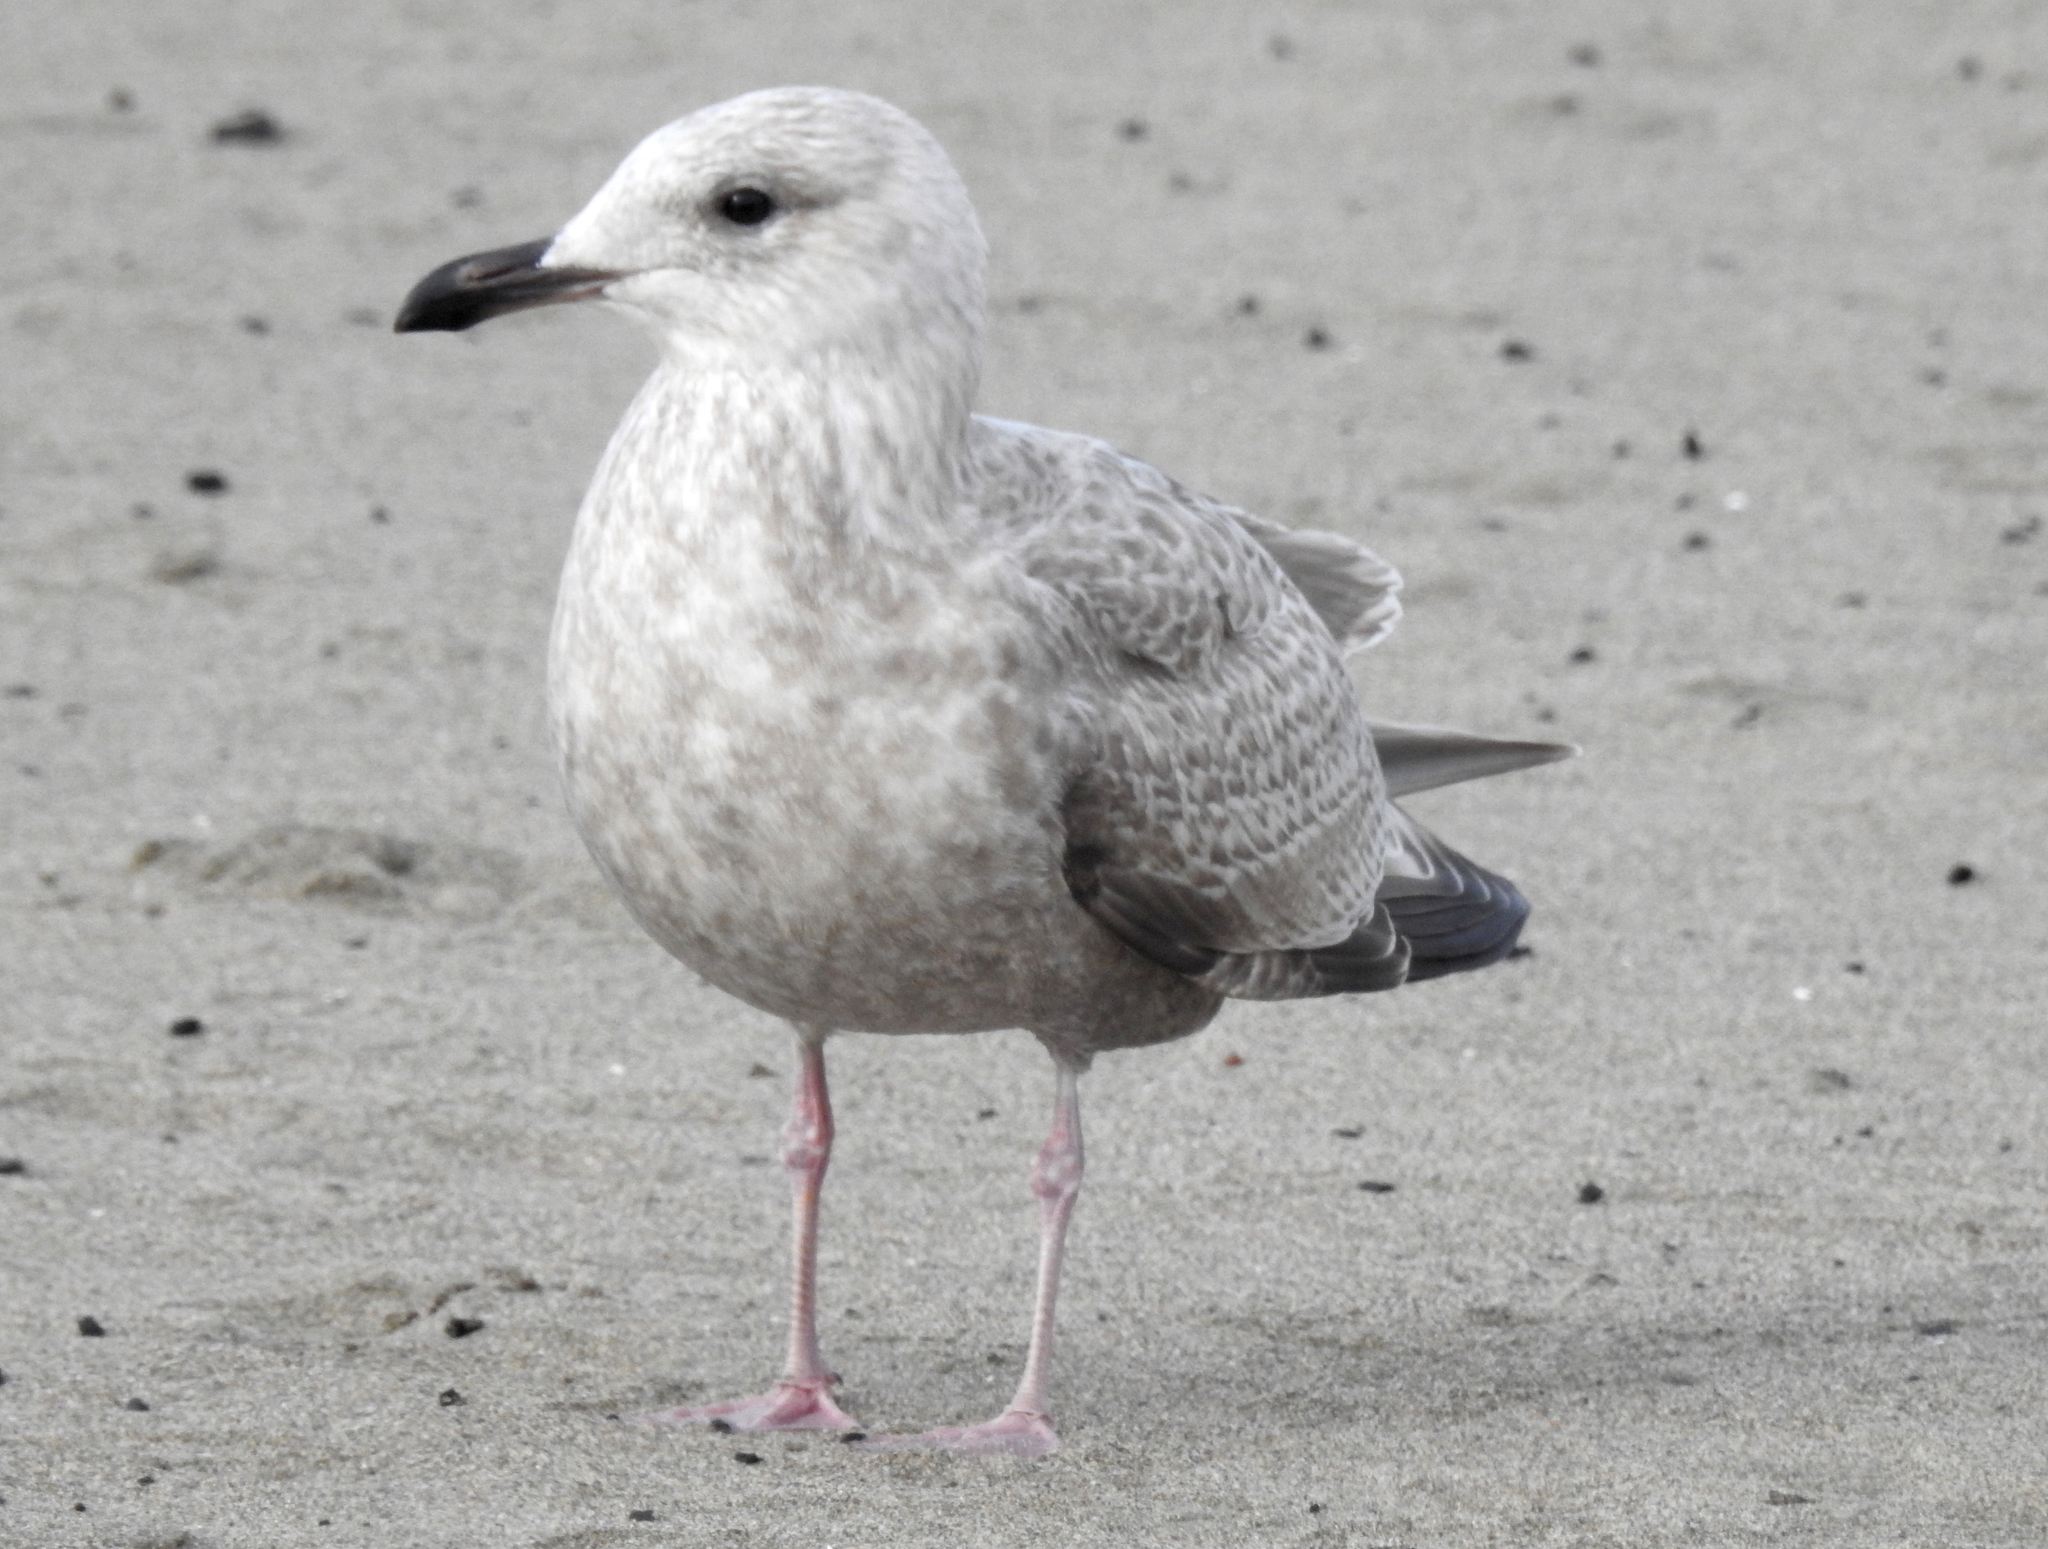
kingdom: Animalia
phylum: Chordata
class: Aves
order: Charadriiformes
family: Laridae
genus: Larus
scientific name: Larus argentatus
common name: Herring gull
